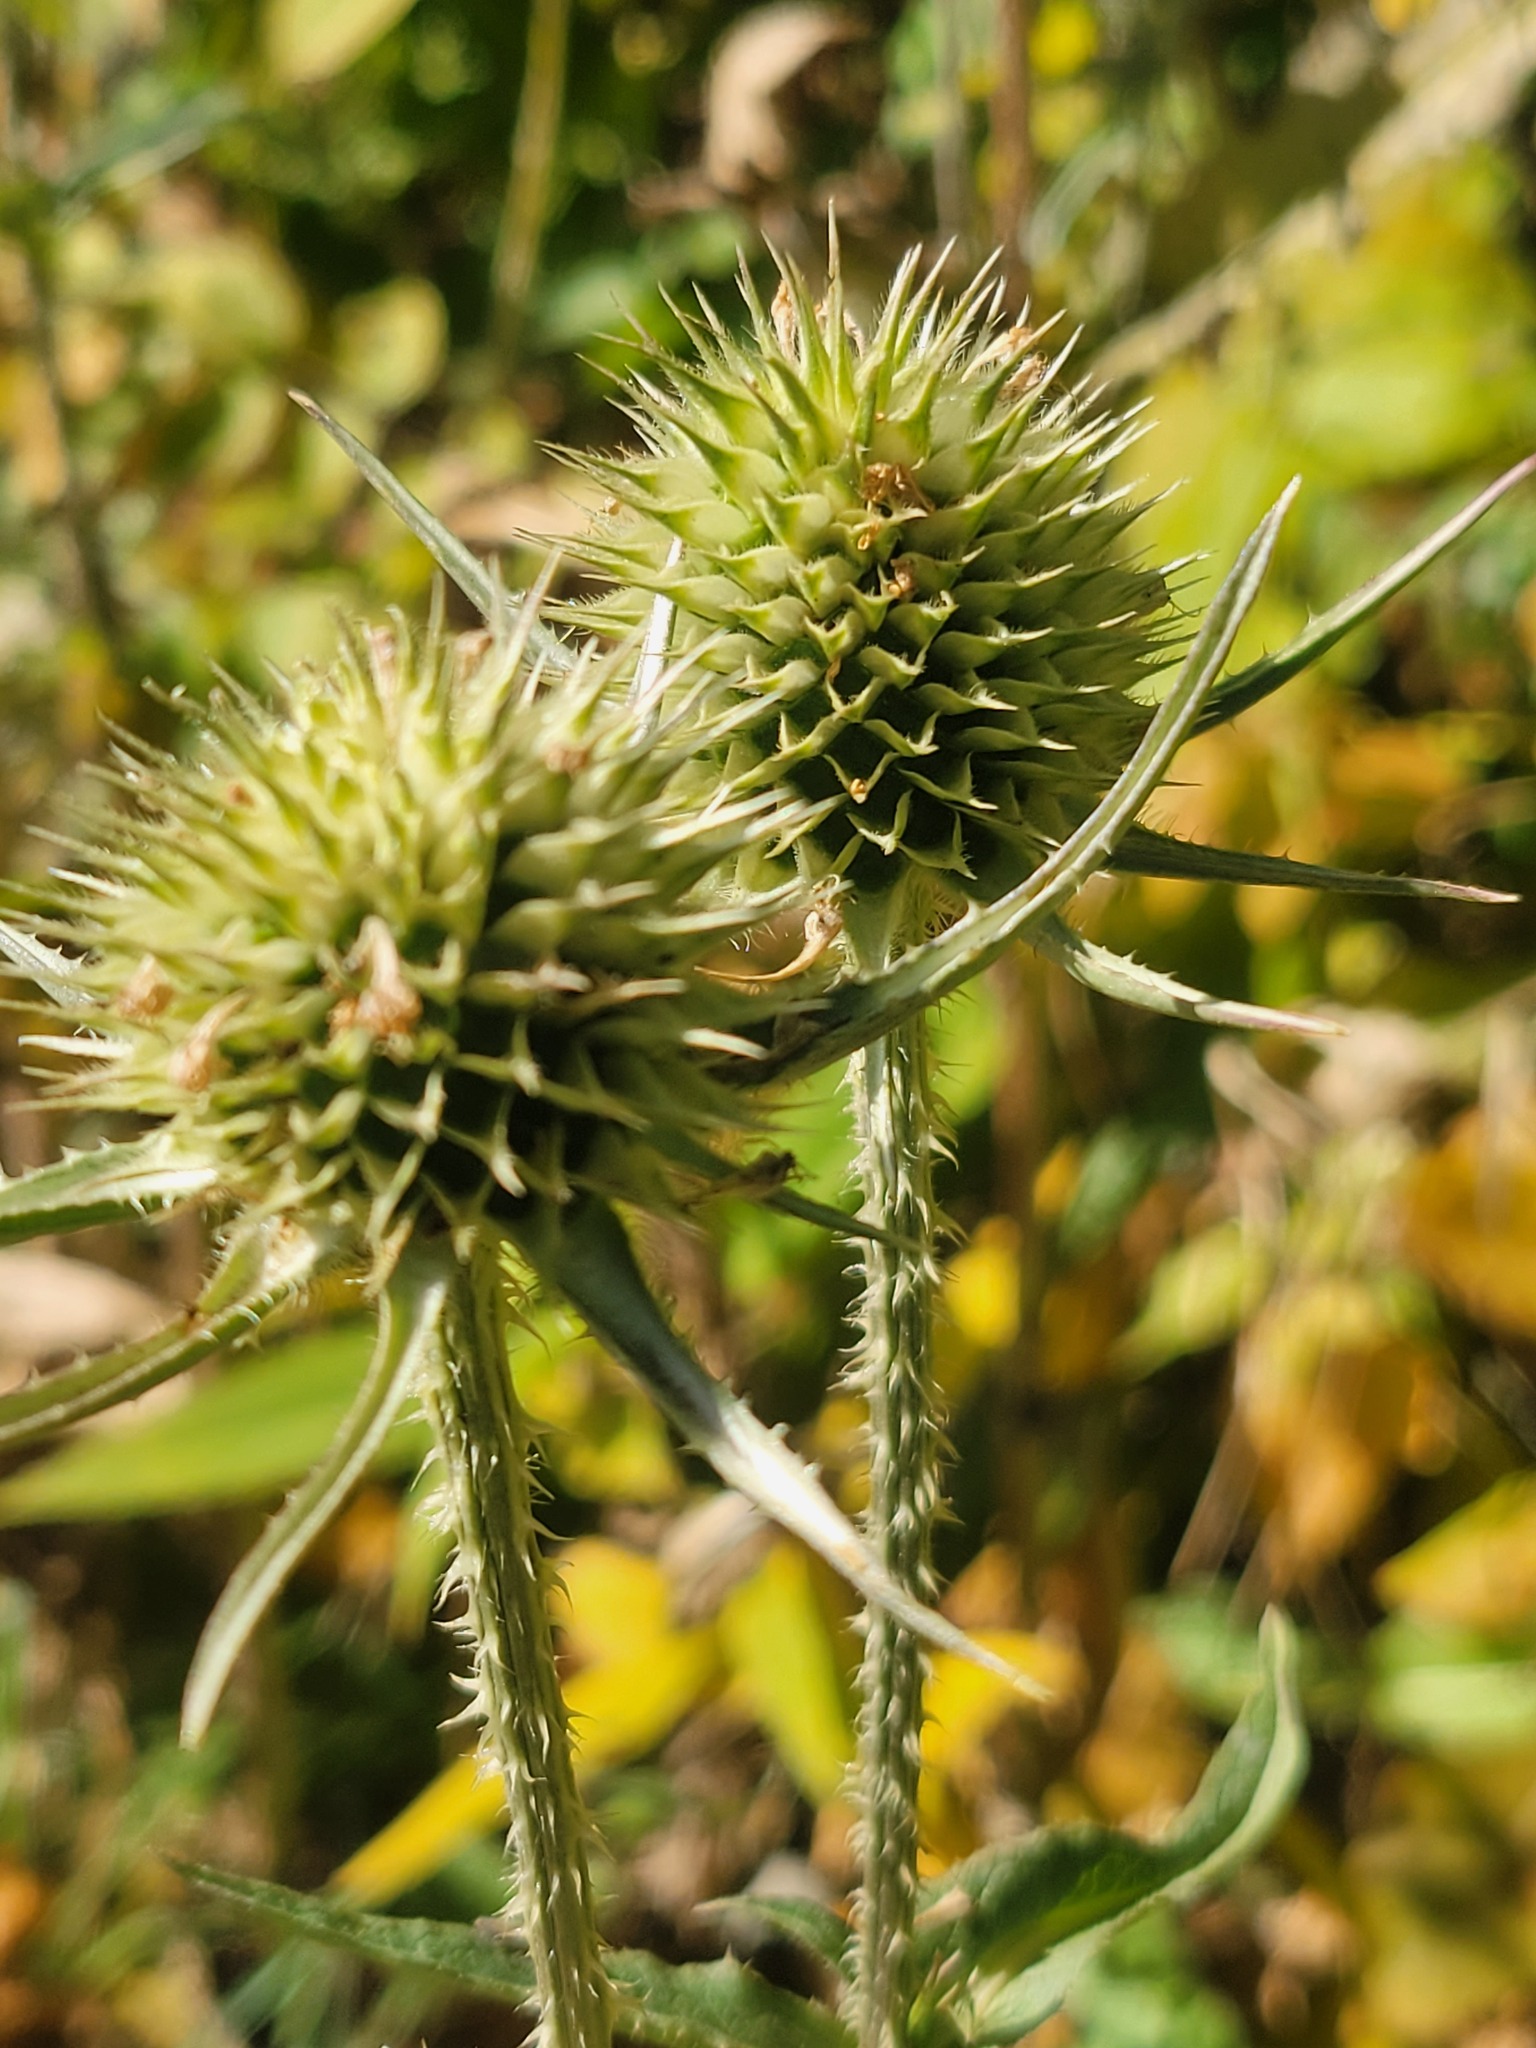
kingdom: Plantae
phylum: Tracheophyta
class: Magnoliopsida
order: Dipsacales
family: Caprifoliaceae
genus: Dipsacus
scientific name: Dipsacus laciniatus
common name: Cut-leaved teasel
